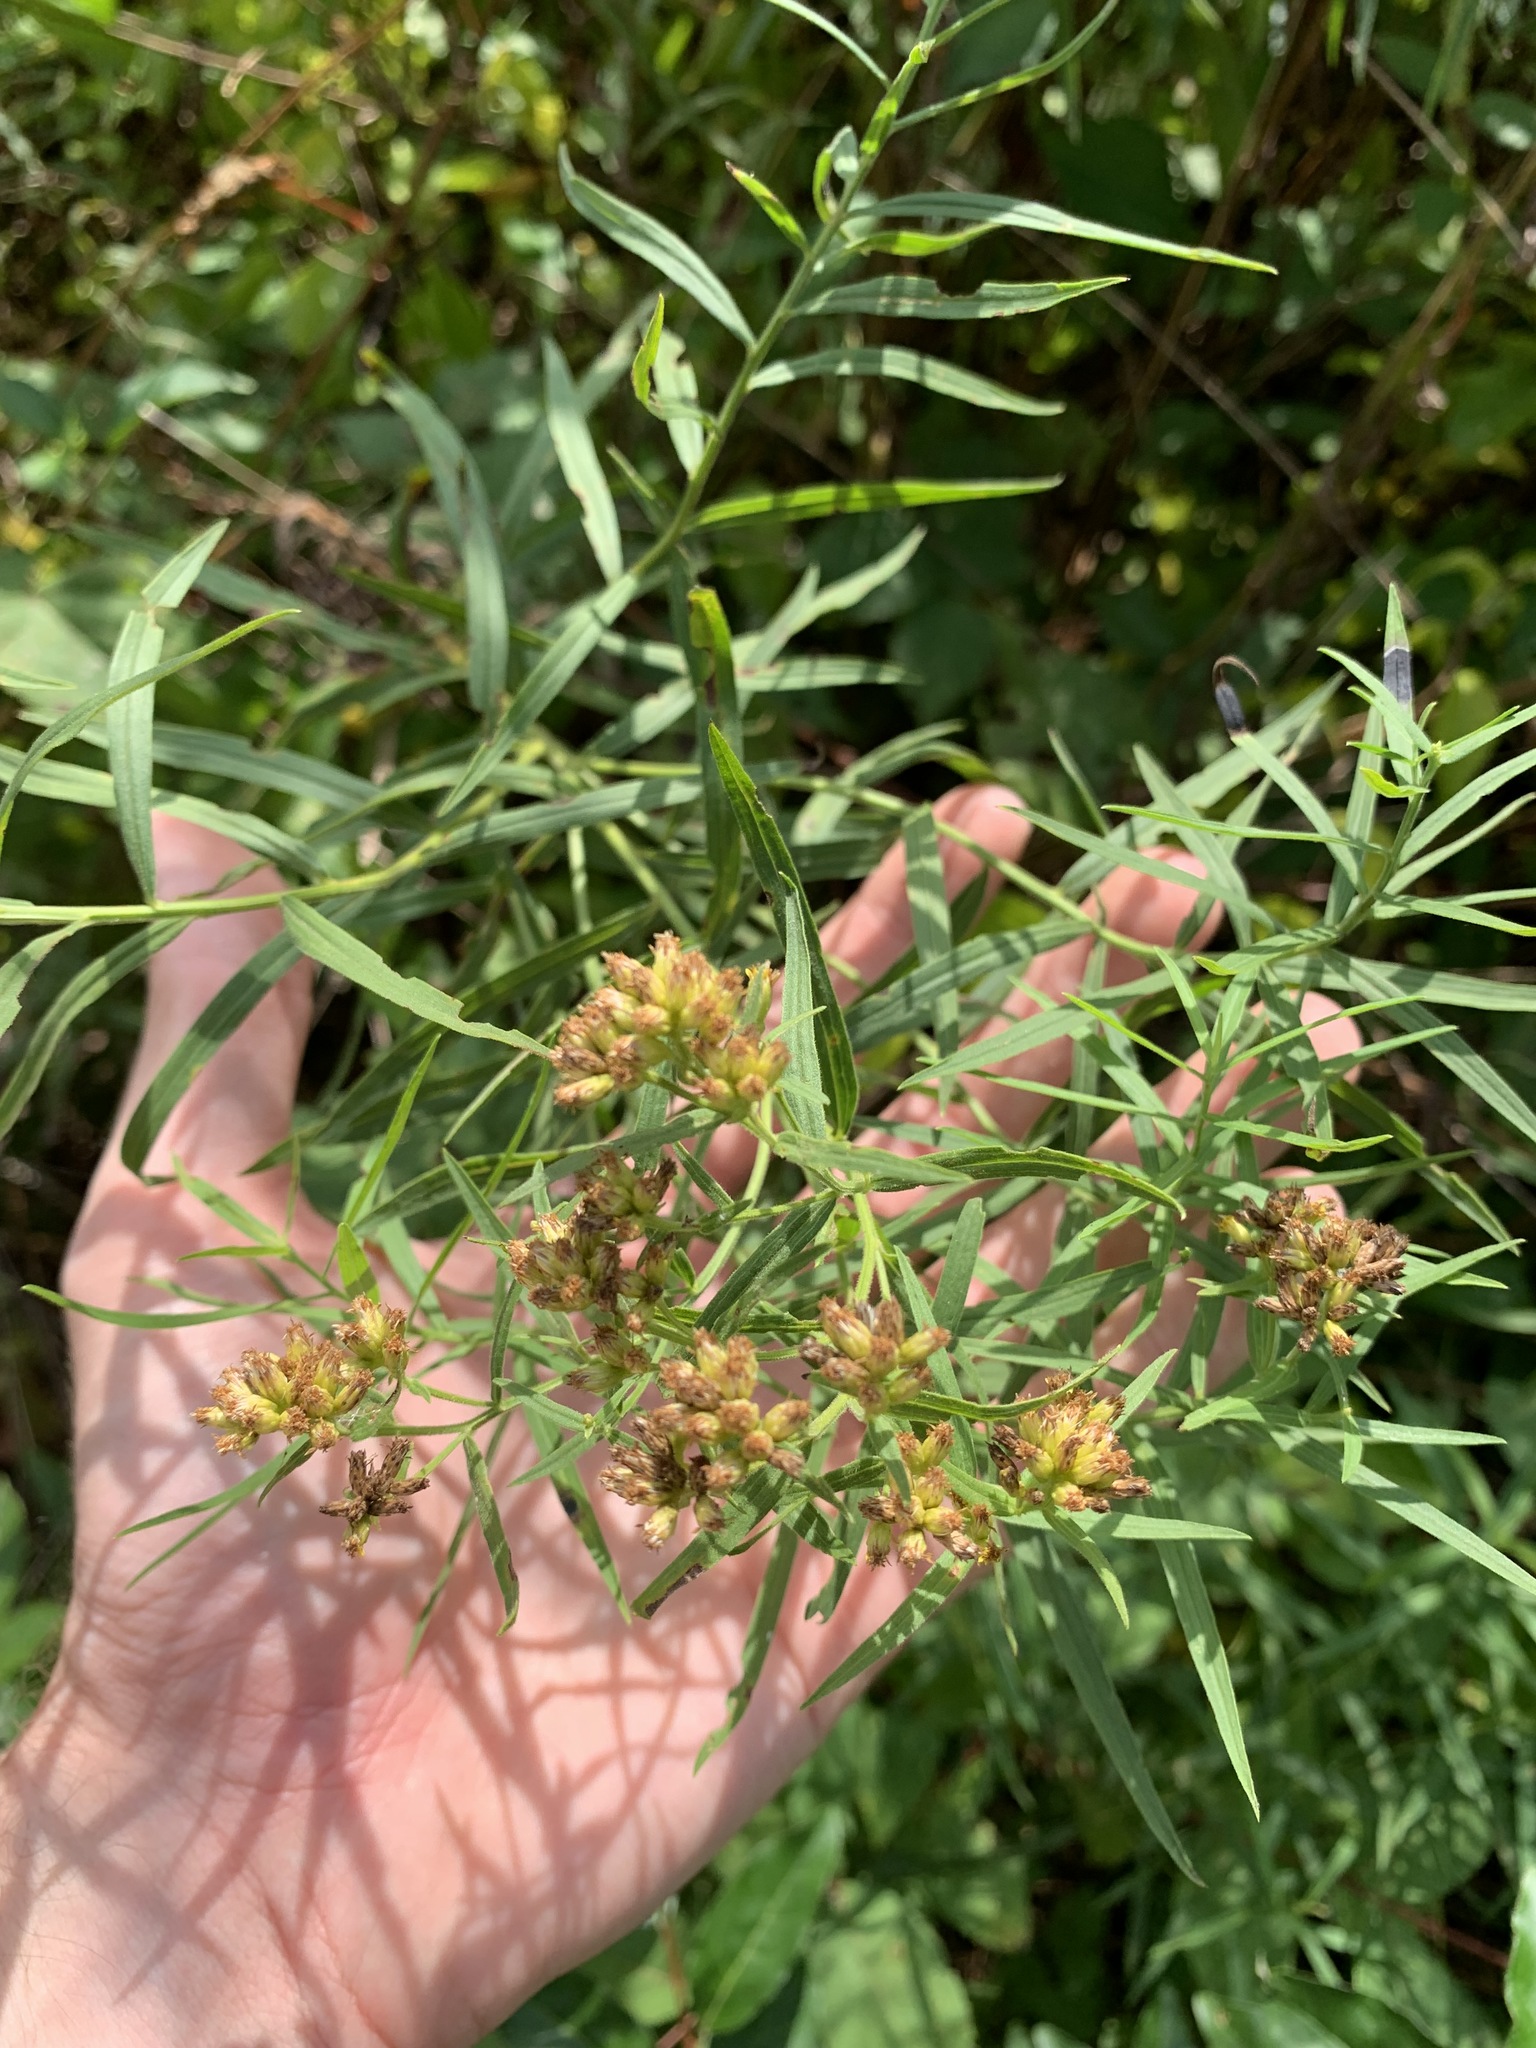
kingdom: Plantae
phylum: Tracheophyta
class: Magnoliopsida
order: Asterales
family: Asteraceae
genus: Euthamia
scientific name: Euthamia graminifolia
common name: Common goldentop
